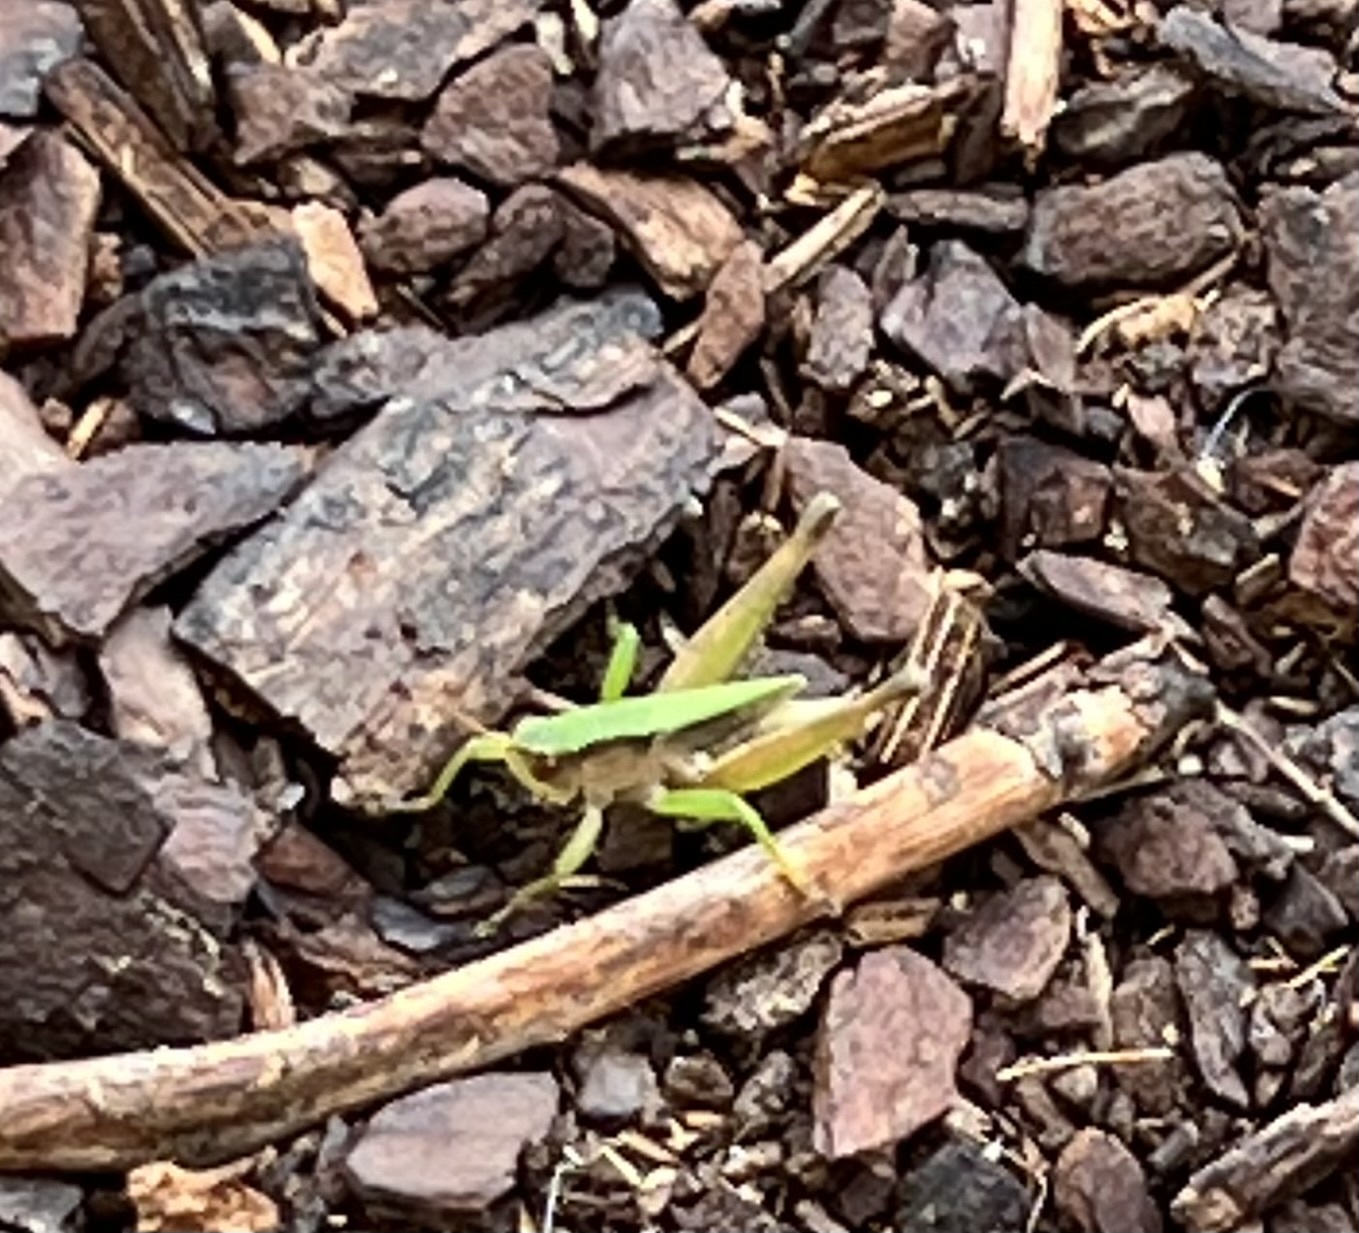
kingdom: Animalia
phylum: Arthropoda
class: Insecta
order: Orthoptera
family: Acrididae
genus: Dichromorpha
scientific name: Dichromorpha viridis
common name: Short-winged green grasshopper
